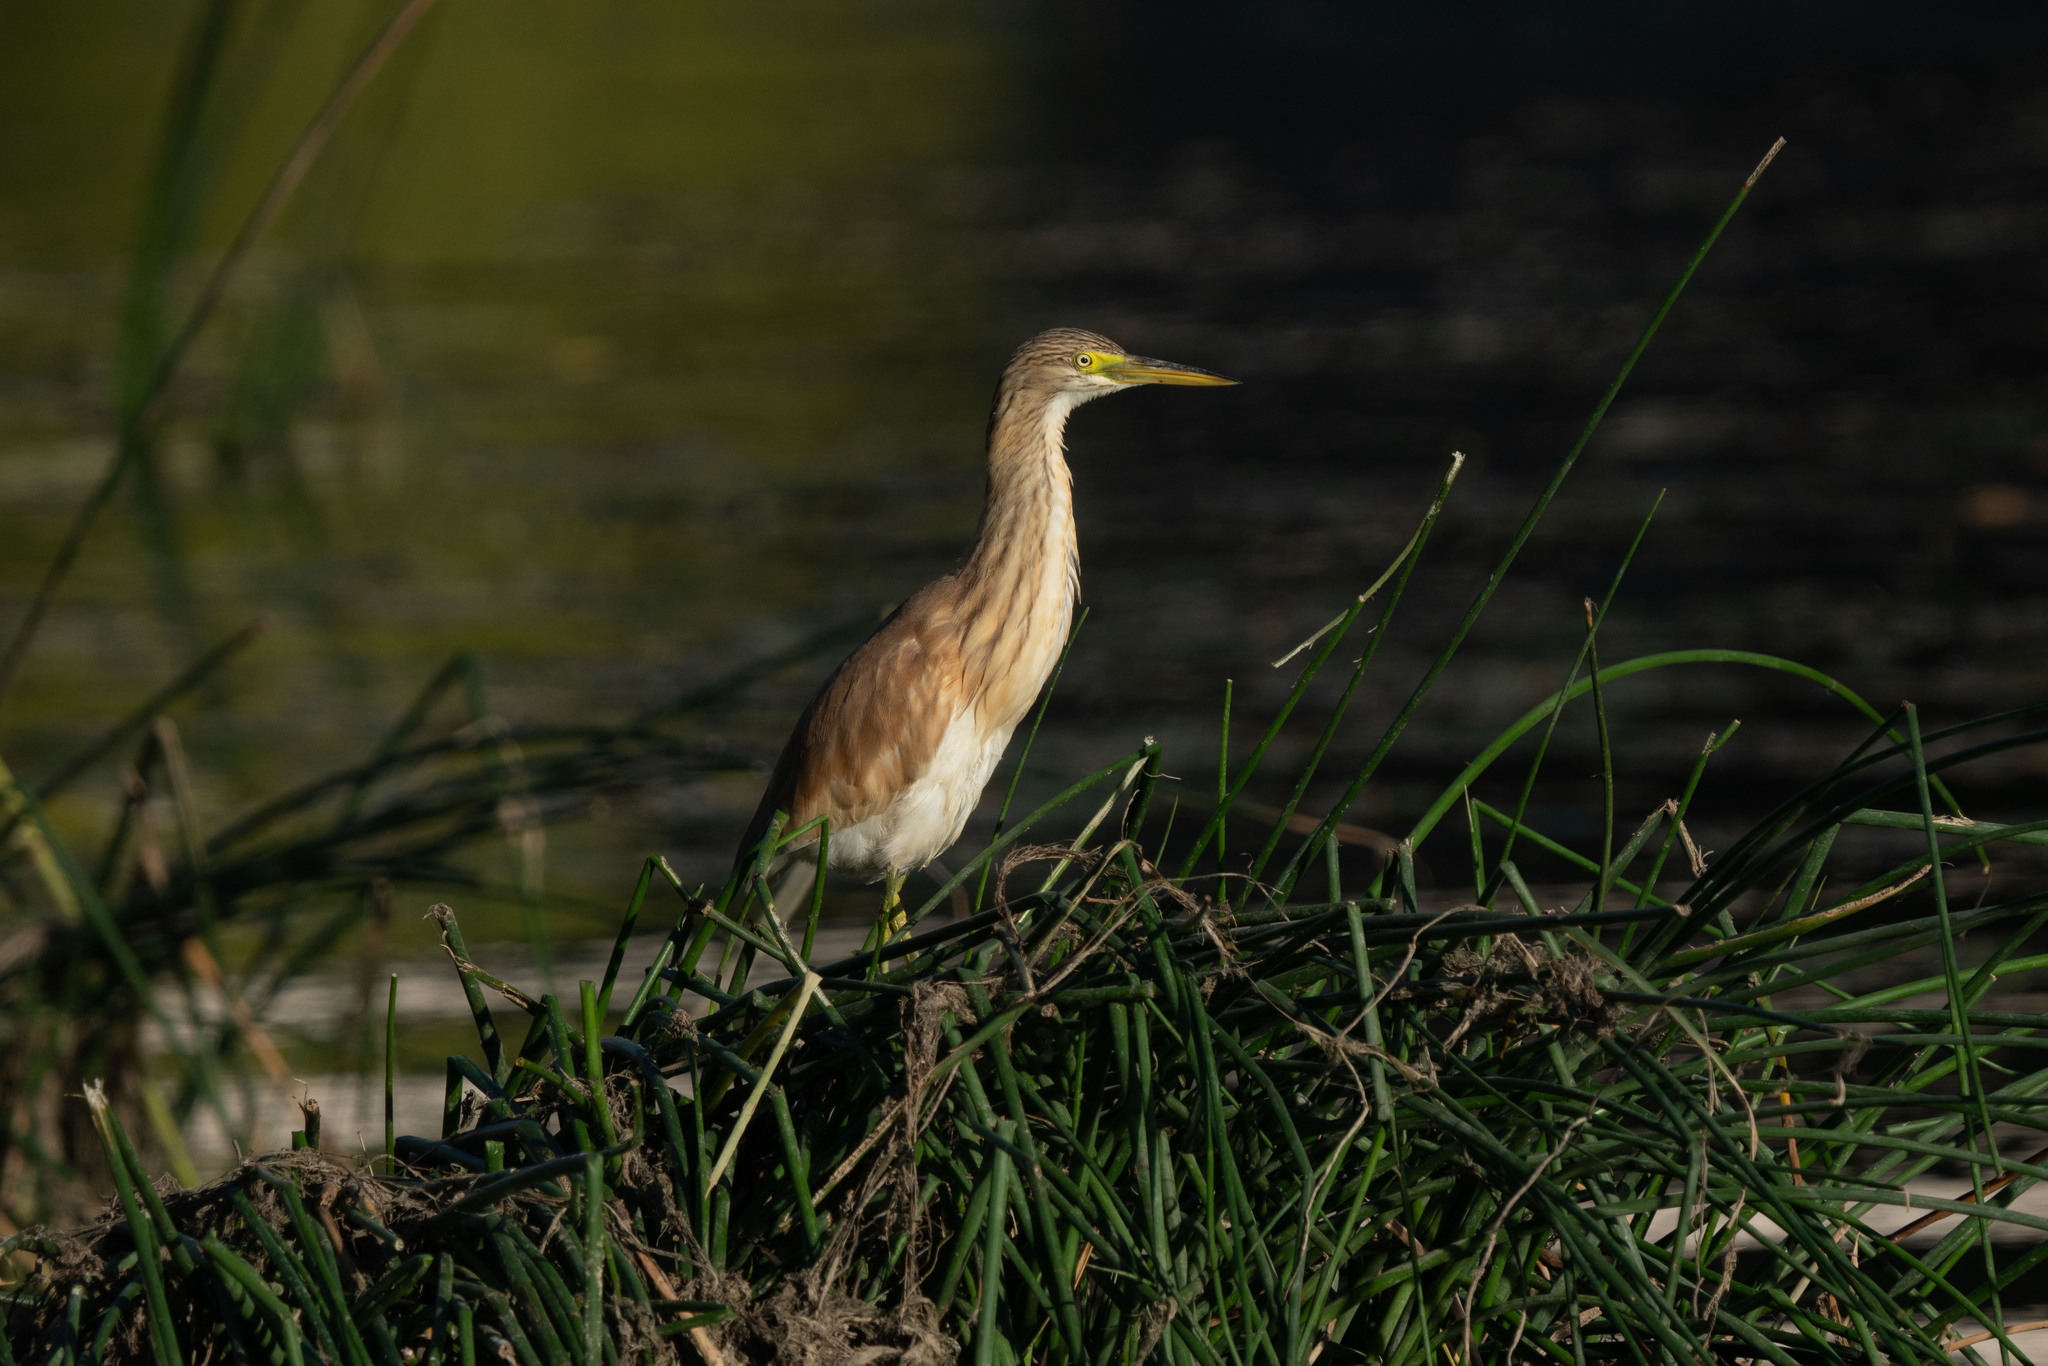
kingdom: Animalia
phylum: Chordata
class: Aves
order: Pelecaniformes
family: Ardeidae
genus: Ardeola
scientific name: Ardeola ralloides
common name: Squacco heron
